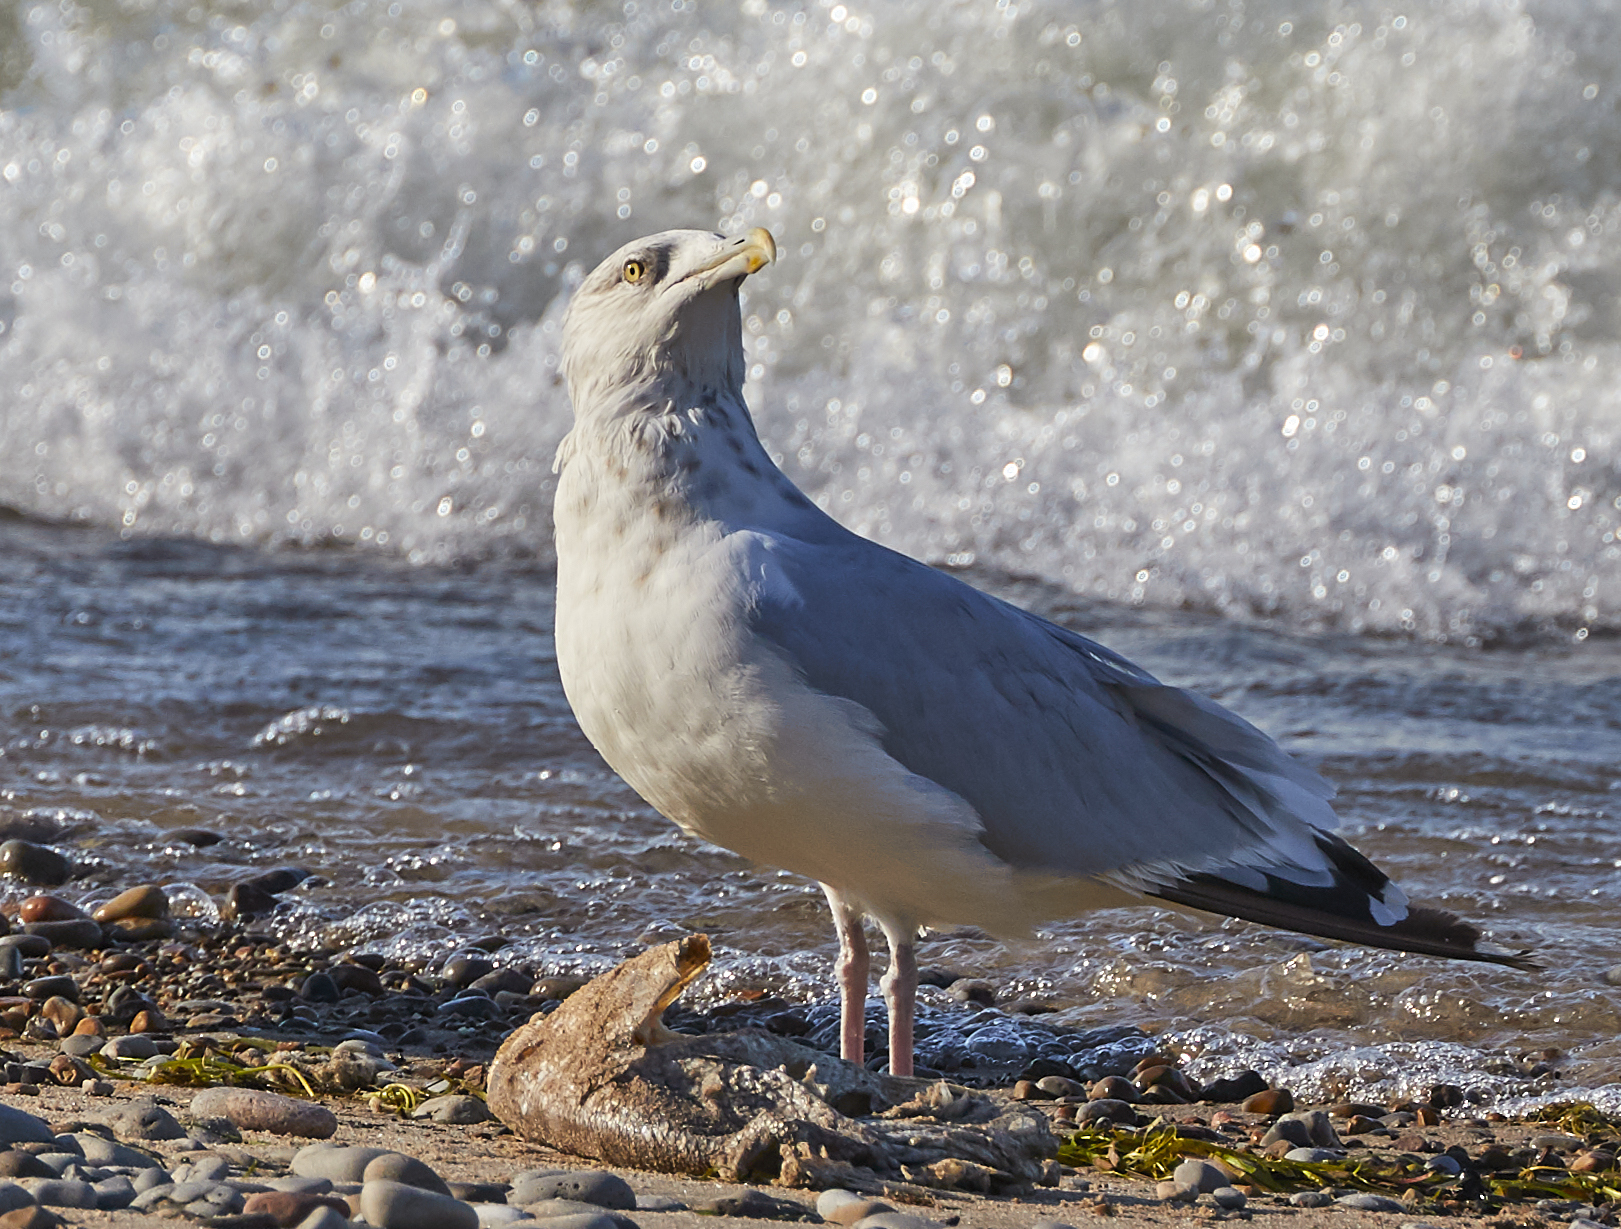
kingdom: Animalia
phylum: Chordata
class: Aves
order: Charadriiformes
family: Laridae
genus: Larus
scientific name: Larus argentatus
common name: Herring gull
